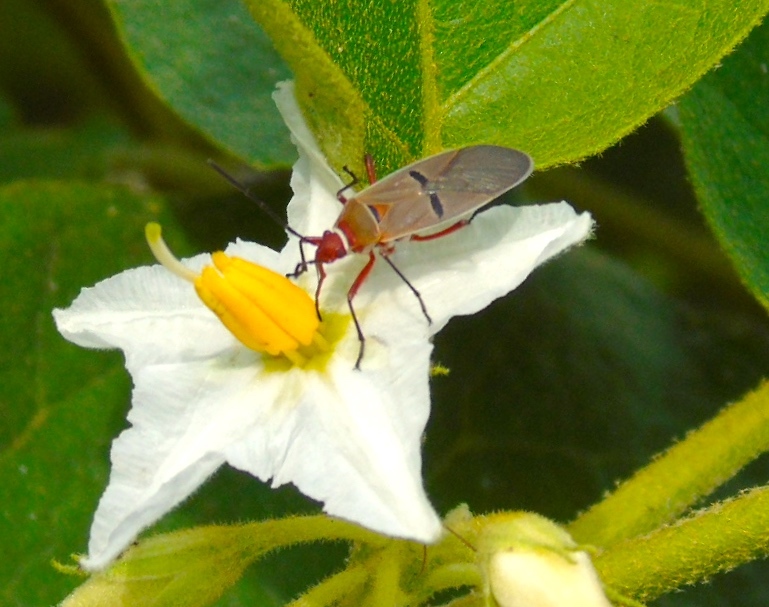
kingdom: Animalia
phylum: Arthropoda
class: Insecta
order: Hemiptera
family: Pyrrhocoridae
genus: Dysdercus
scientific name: Dysdercus bimaculatus
